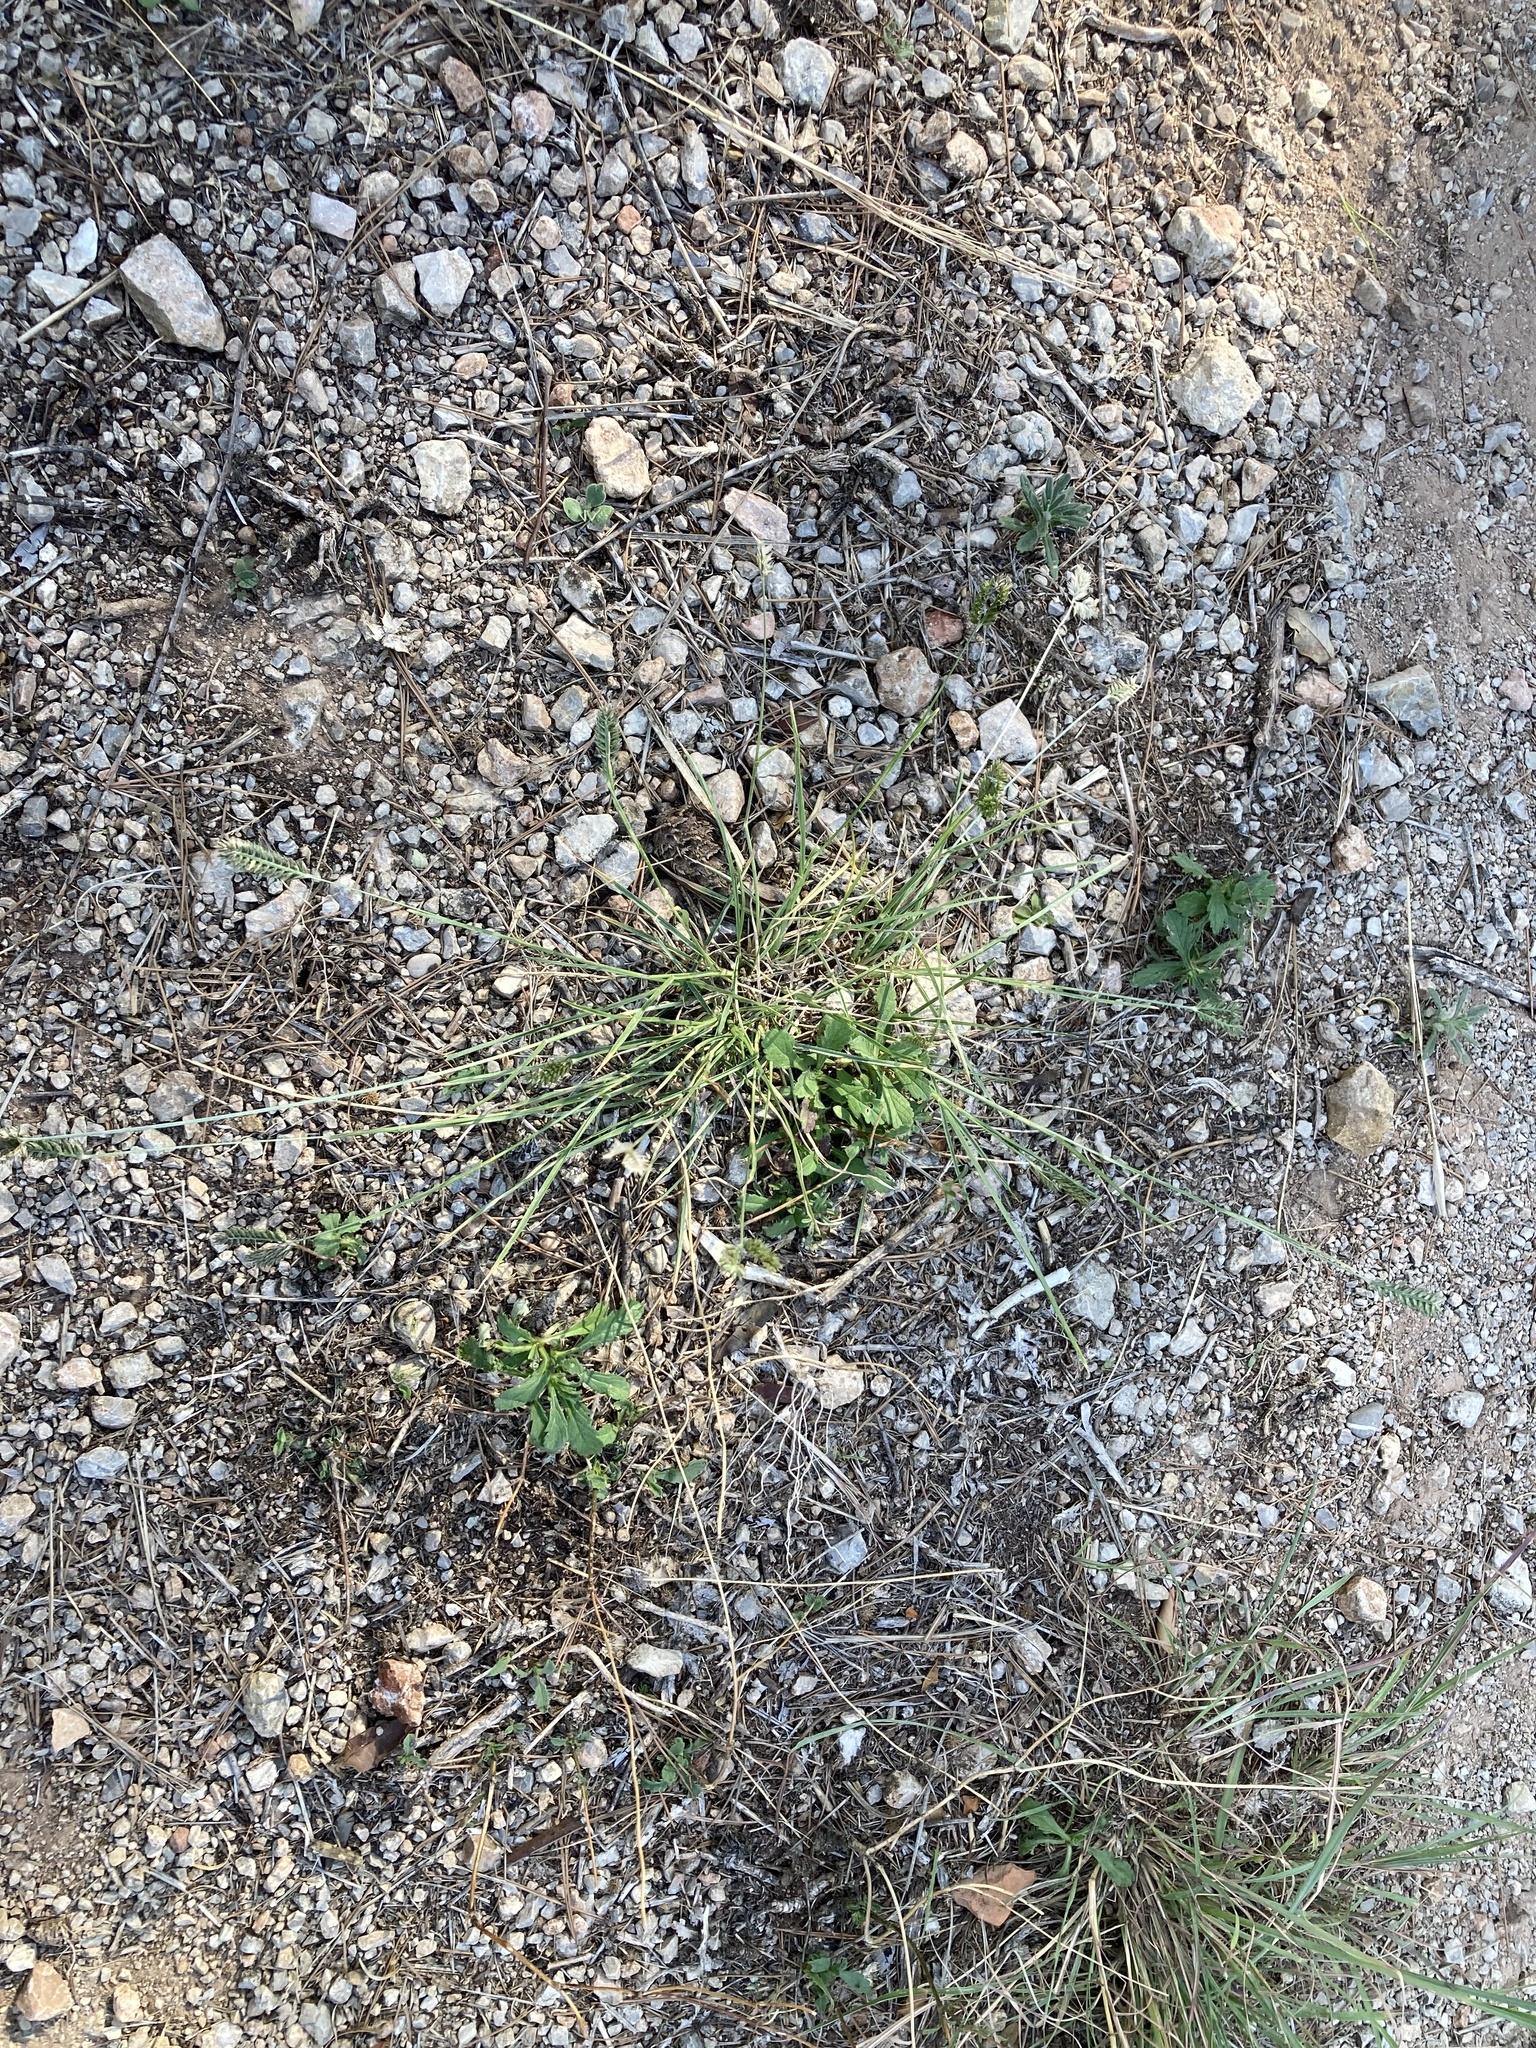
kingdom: Plantae
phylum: Tracheophyta
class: Liliopsida
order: Poales
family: Poaceae
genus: Eleusine
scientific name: Eleusine tristachya
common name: American yard-grass
